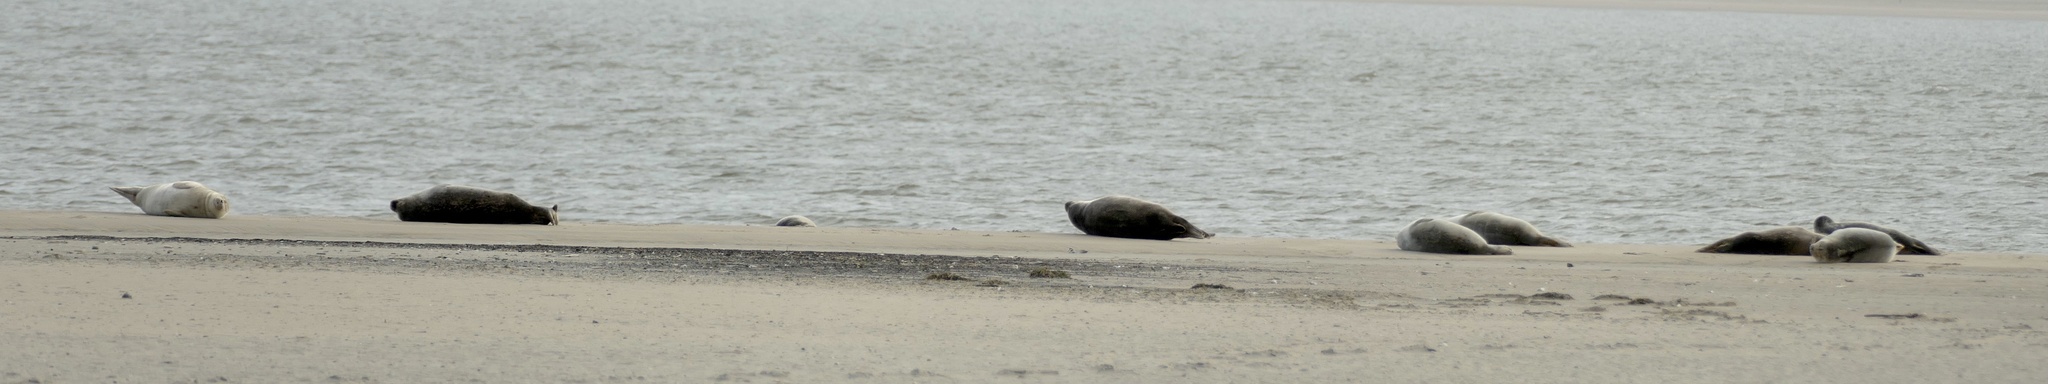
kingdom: Animalia
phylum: Chordata
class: Mammalia
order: Carnivora
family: Phocidae
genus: Phoca
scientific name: Phoca vitulina
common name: Harbor seal
